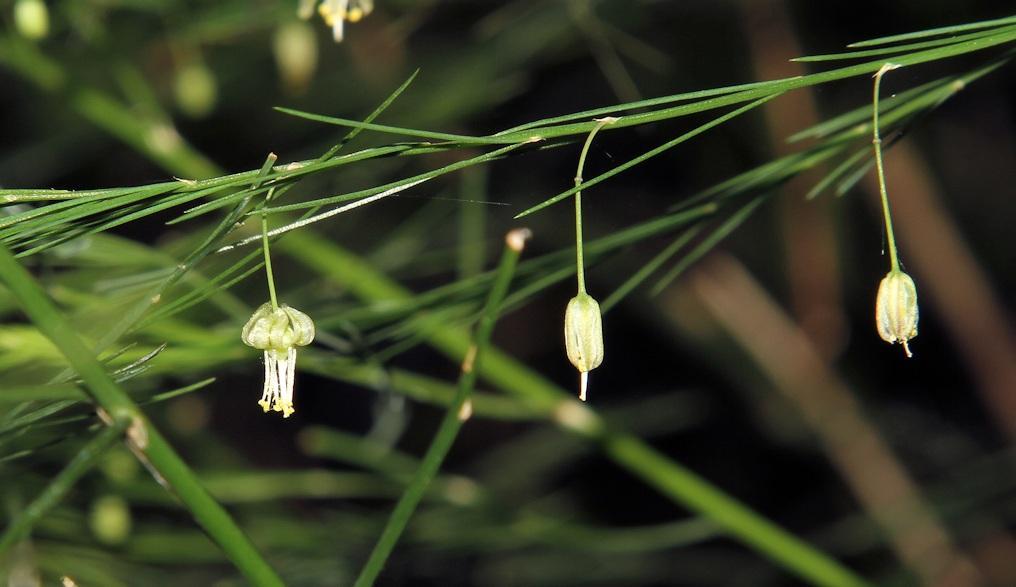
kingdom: Plantae
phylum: Tracheophyta
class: Liliopsida
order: Asparagales
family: Asparagaceae
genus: Asparagus
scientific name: Asparagus virgatus
